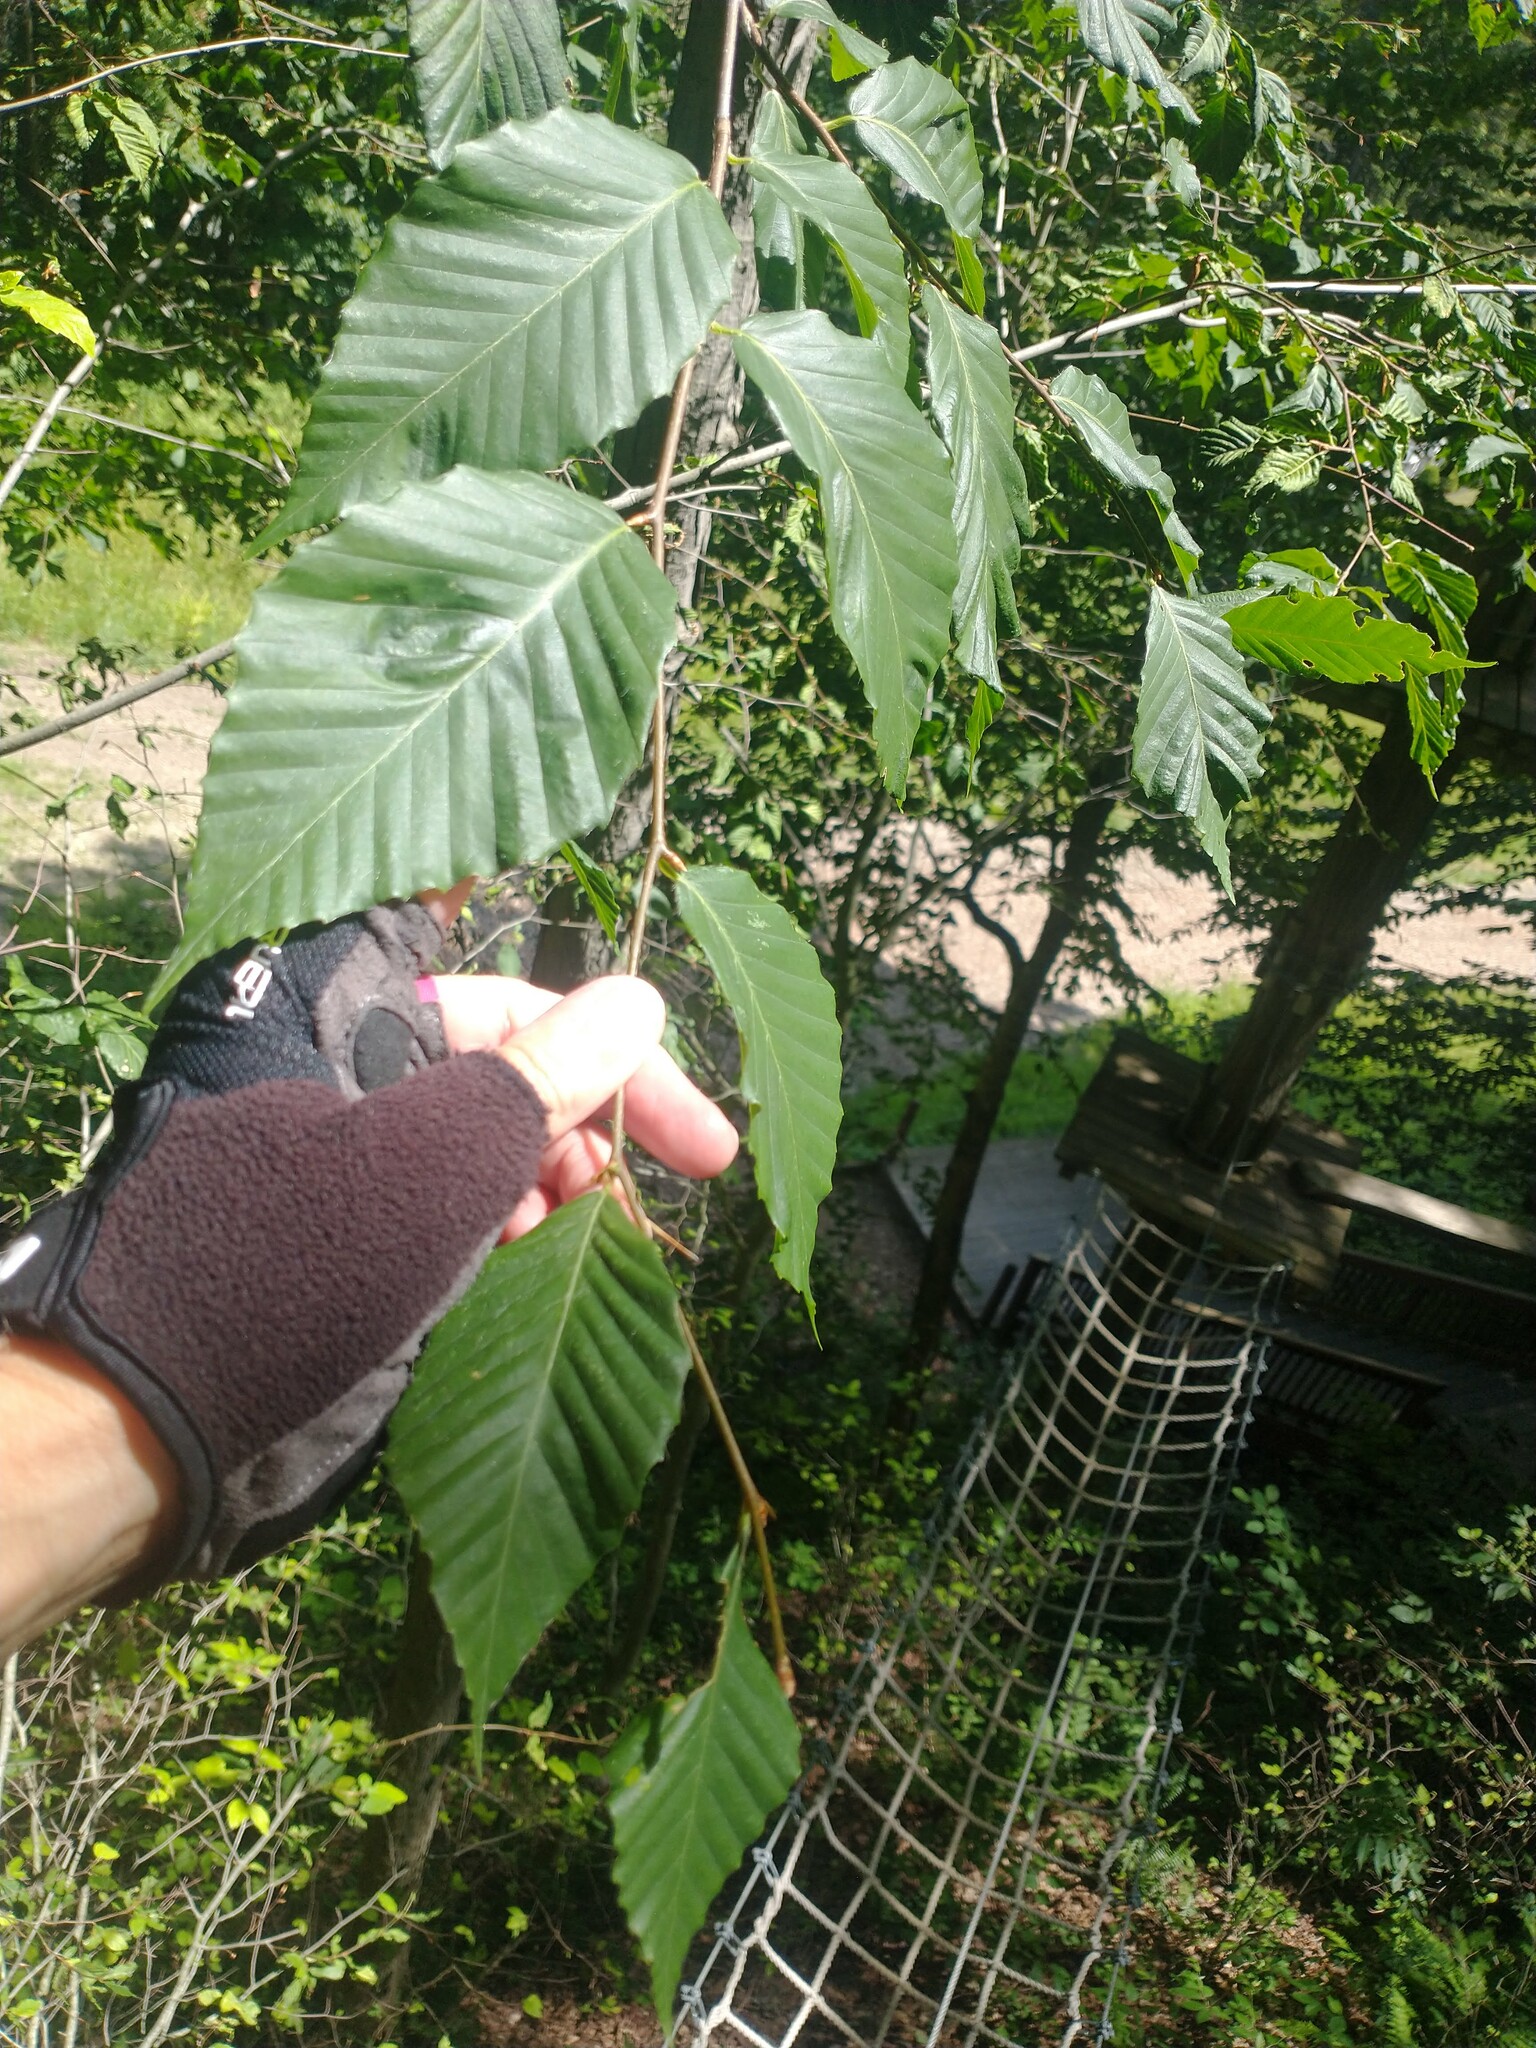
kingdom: Plantae
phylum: Tracheophyta
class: Magnoliopsida
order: Fagales
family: Fagaceae
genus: Fagus
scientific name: Fagus grandifolia
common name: American beech
